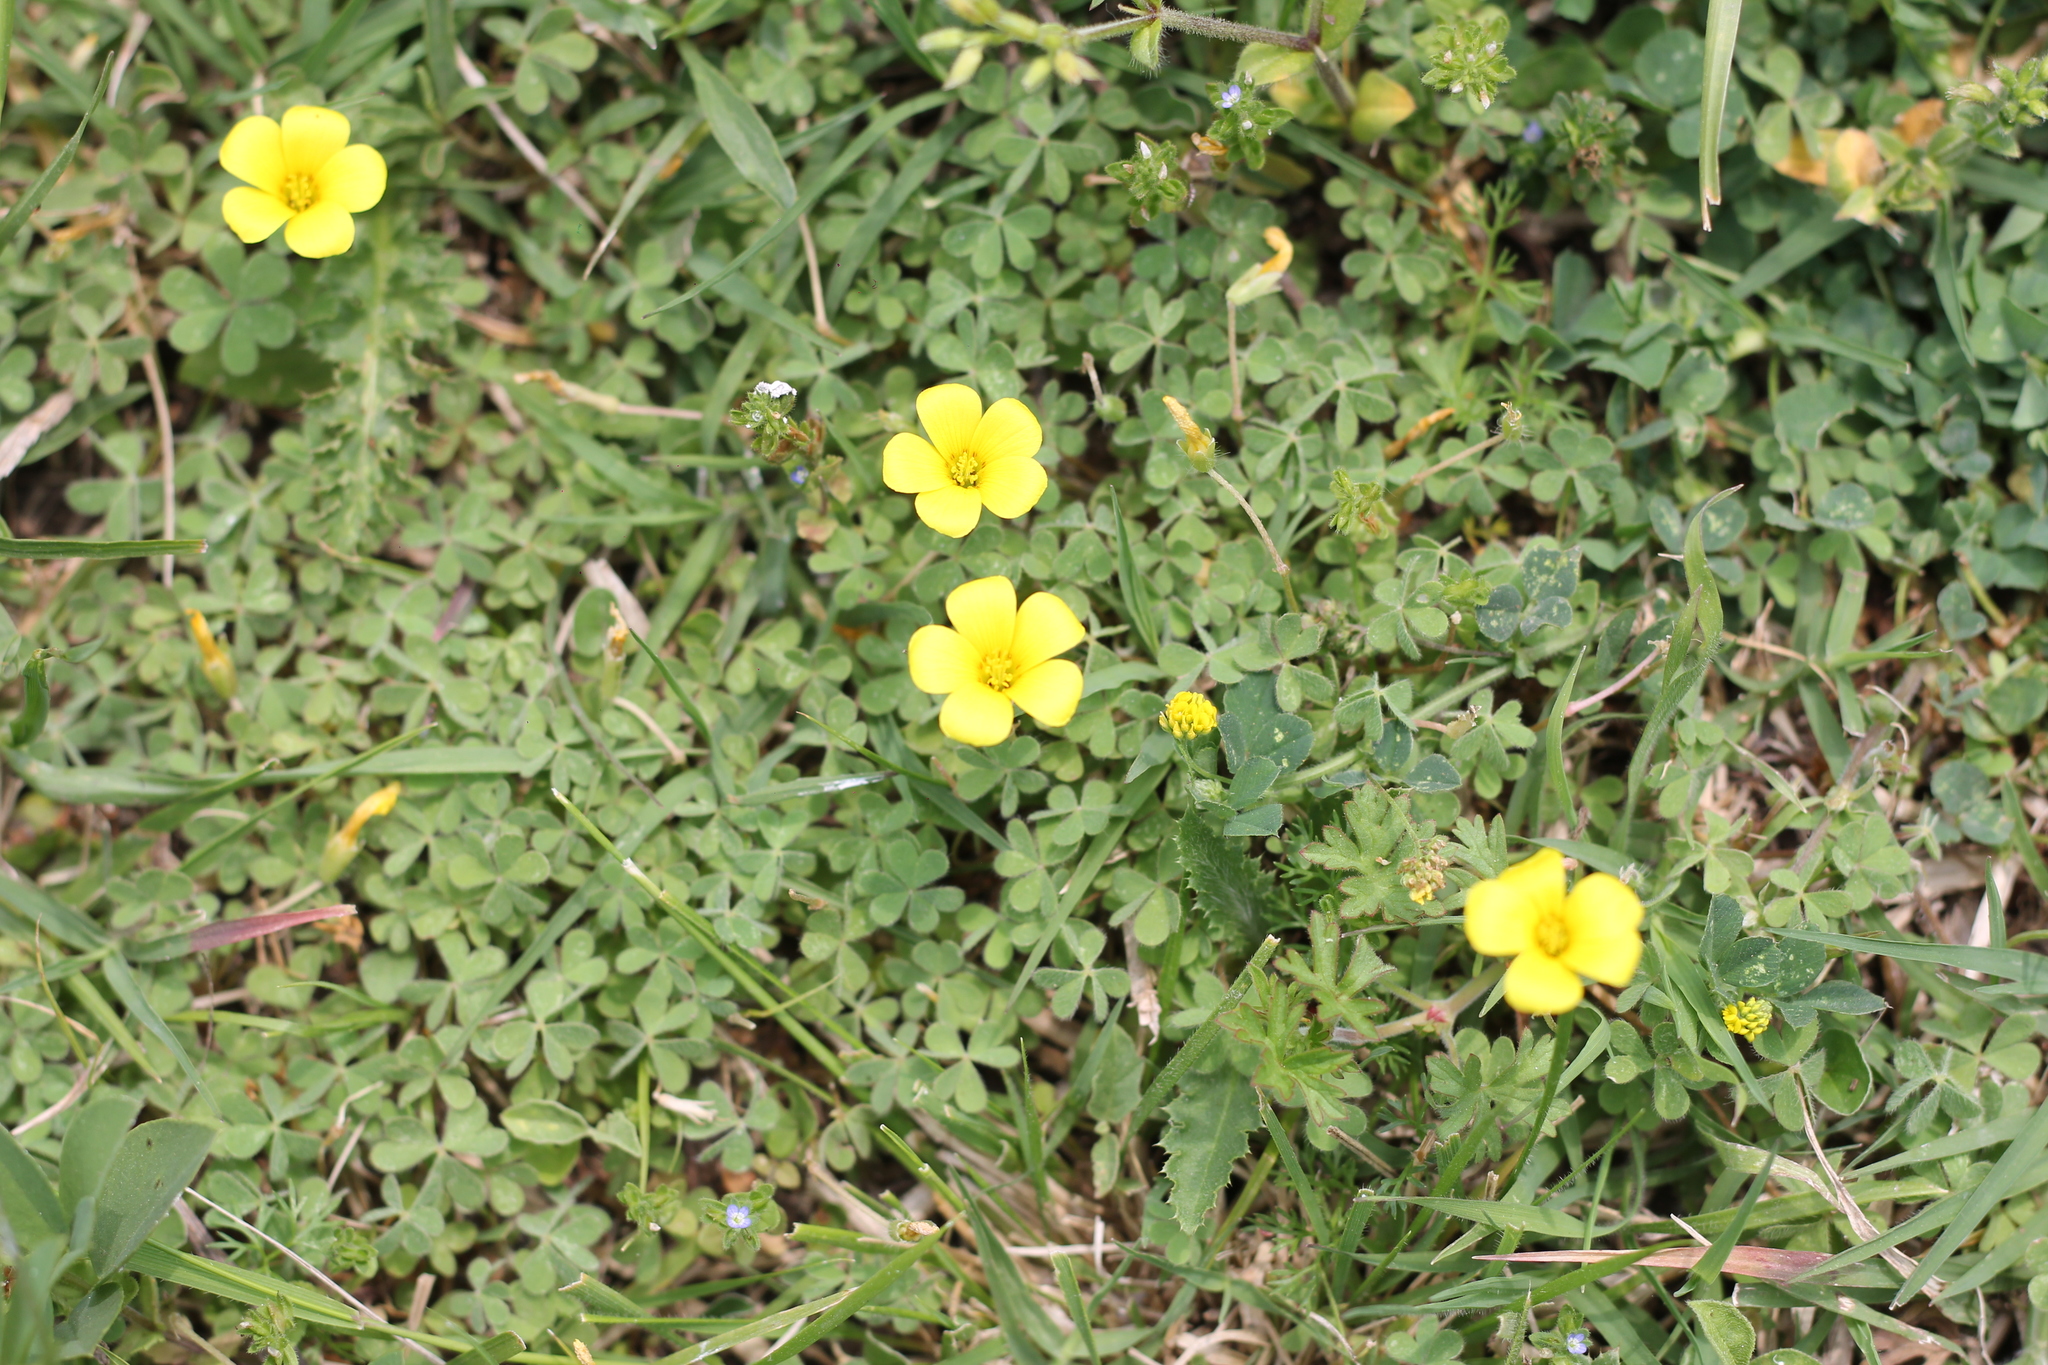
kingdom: Plantae
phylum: Tracheophyta
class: Magnoliopsida
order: Oxalidales
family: Oxalidaceae
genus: Oxalis
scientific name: Oxalis corniculata
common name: Procumbent yellow-sorrel
